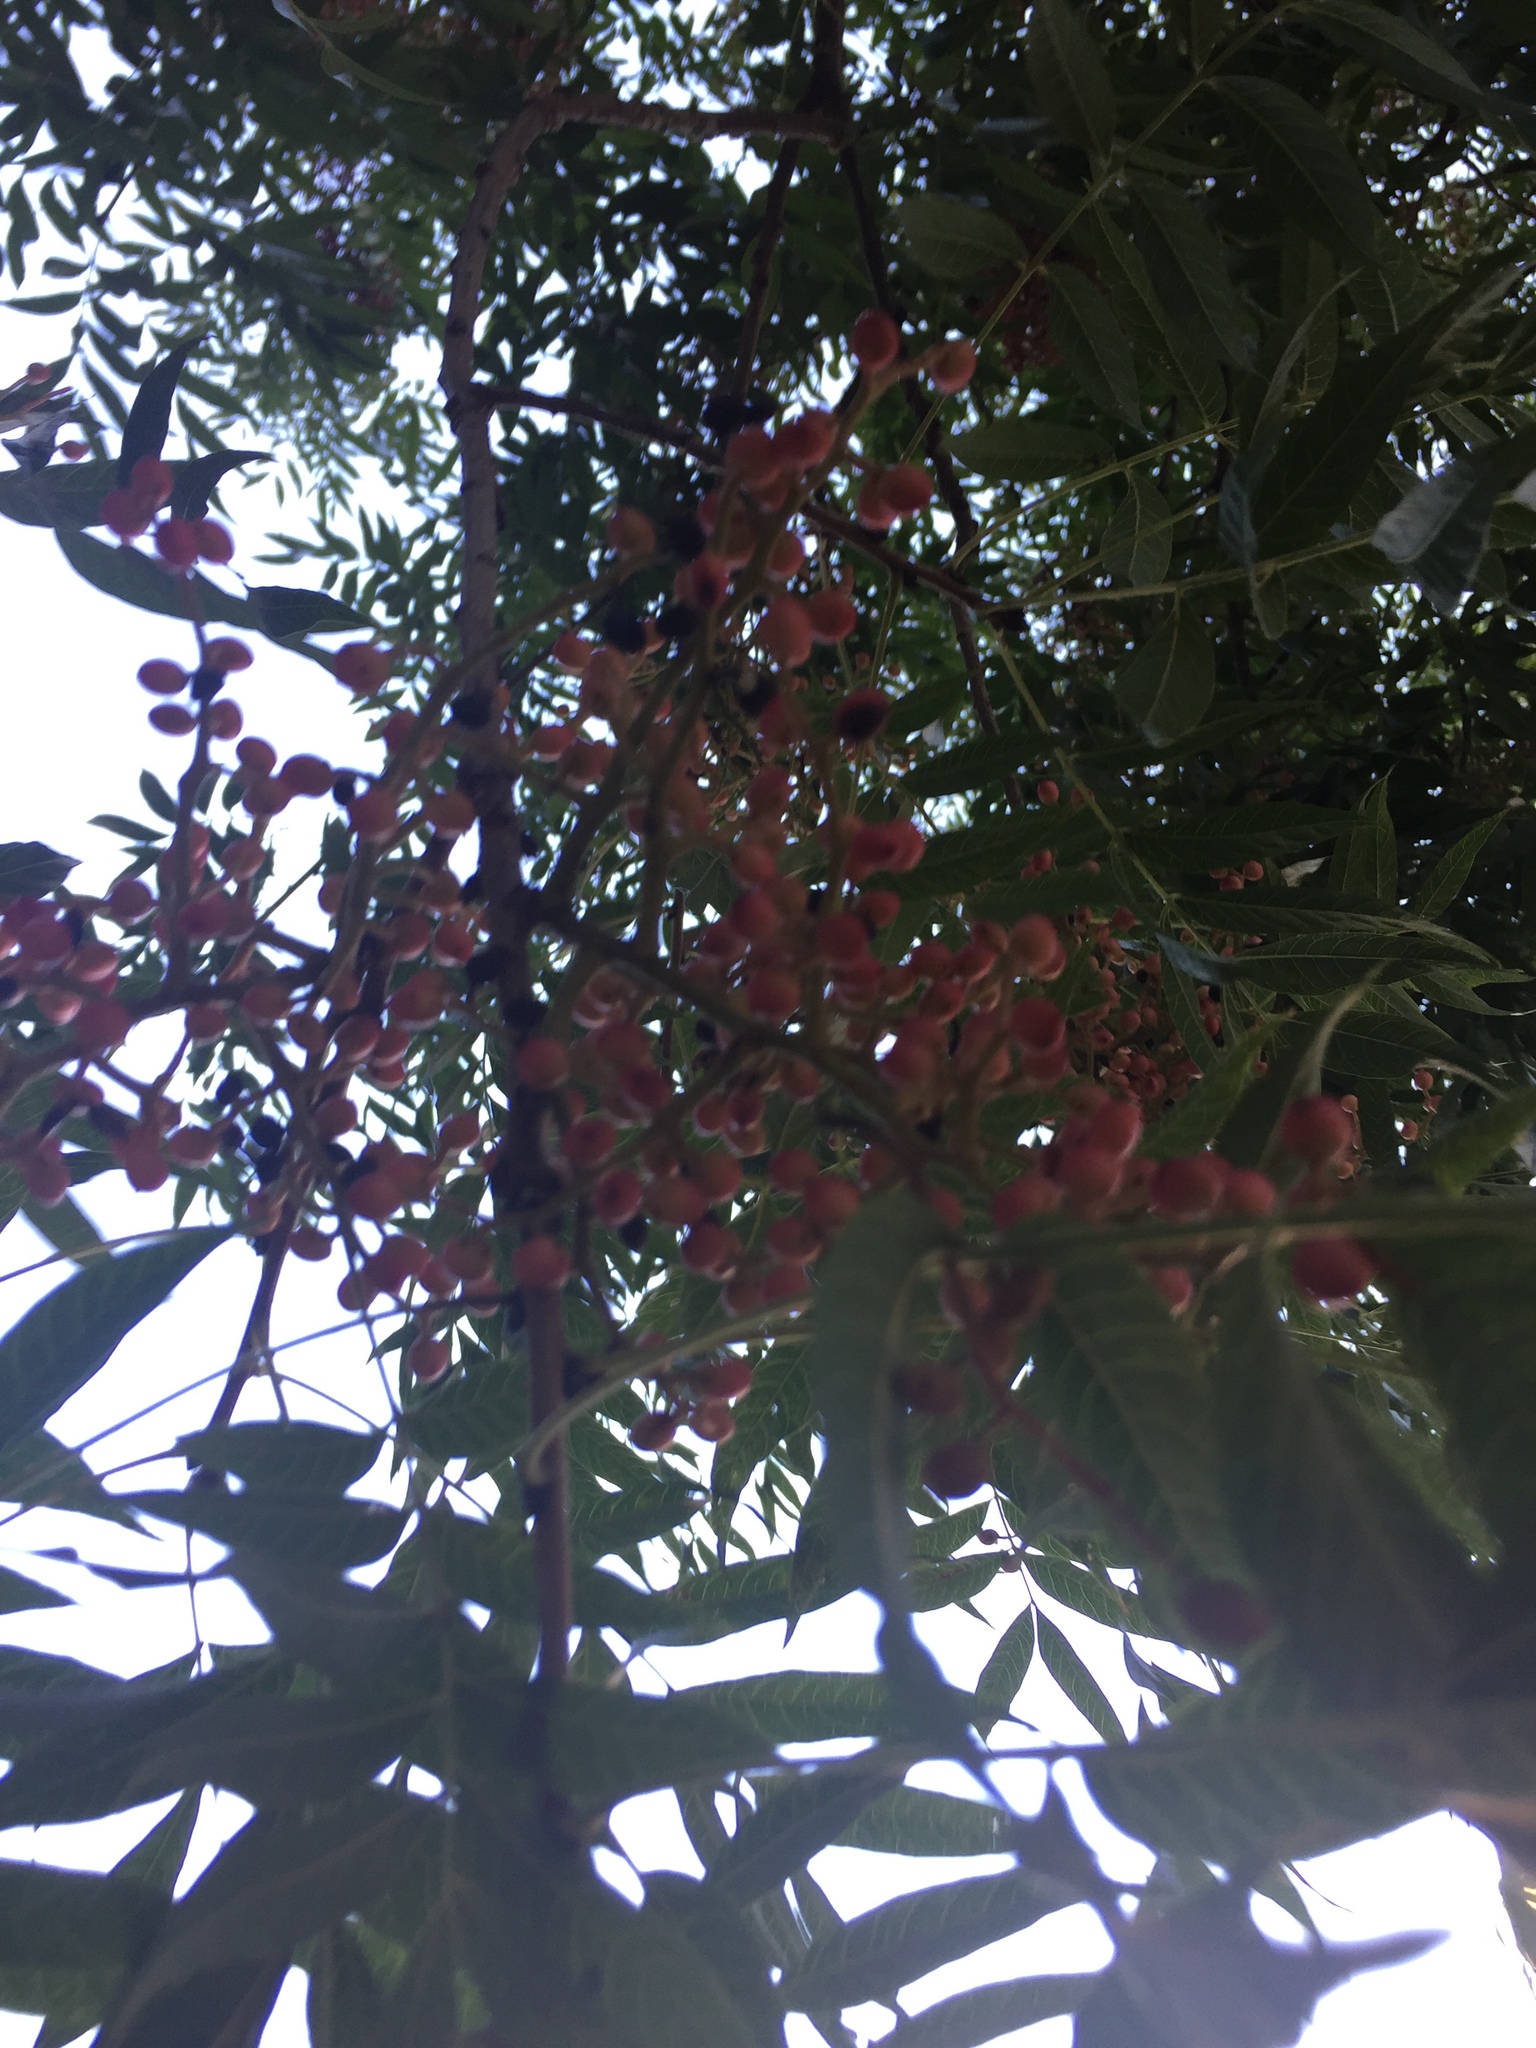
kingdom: Plantae
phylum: Tracheophyta
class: Magnoliopsida
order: Sapindales
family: Anacardiaceae
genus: Pistacia
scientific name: Pistacia chinensis
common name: Chinese pistache
